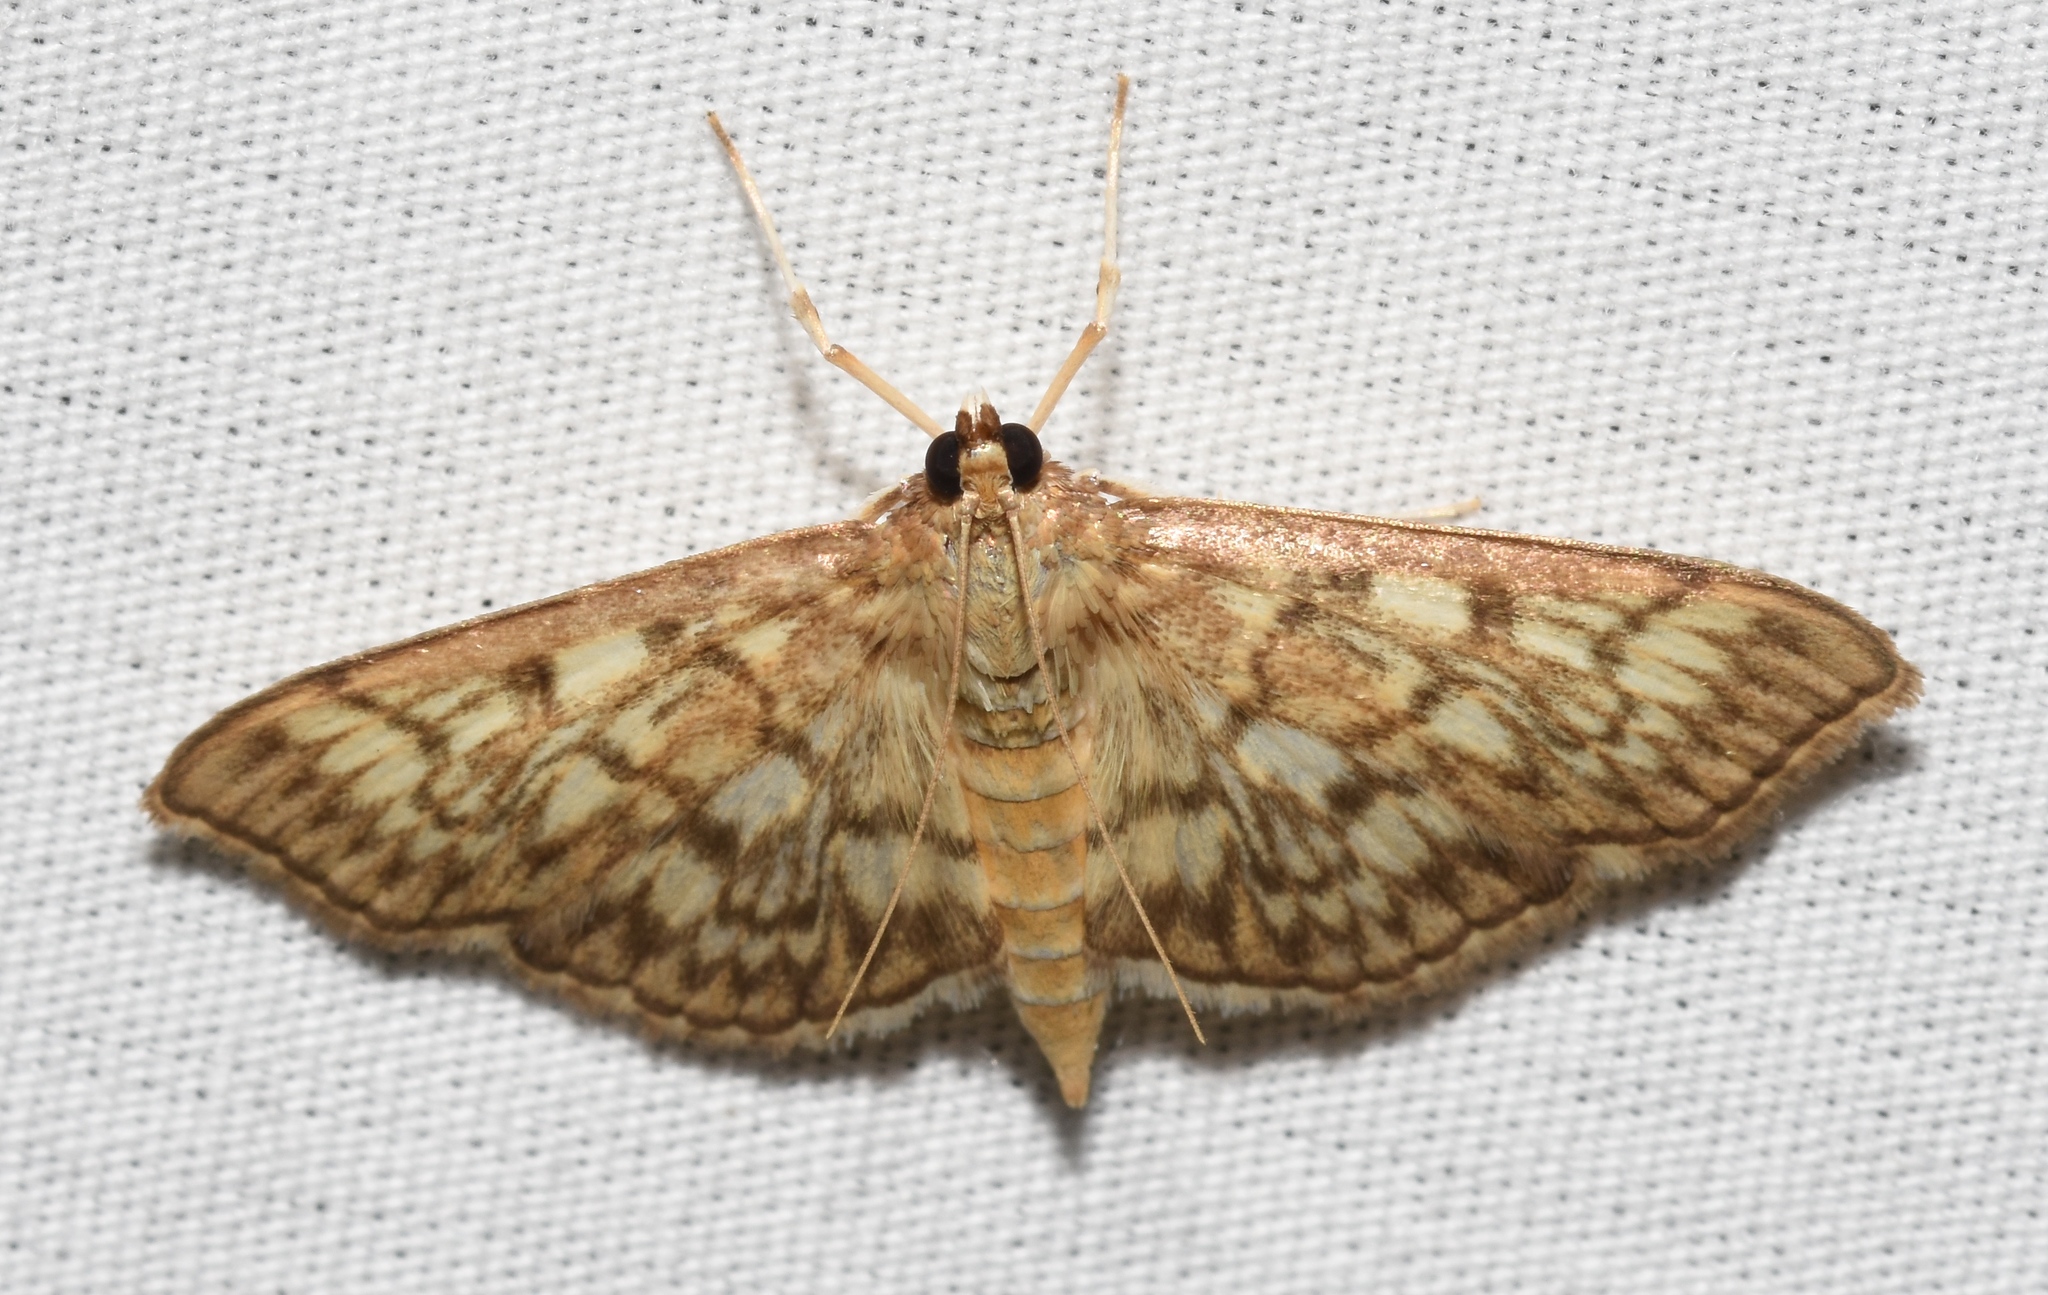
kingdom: Animalia
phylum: Arthropoda
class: Insecta
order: Lepidoptera
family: Crambidae
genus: Herpetogramma
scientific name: Herpetogramma pertextalis
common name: Bold-feathered grass moth
